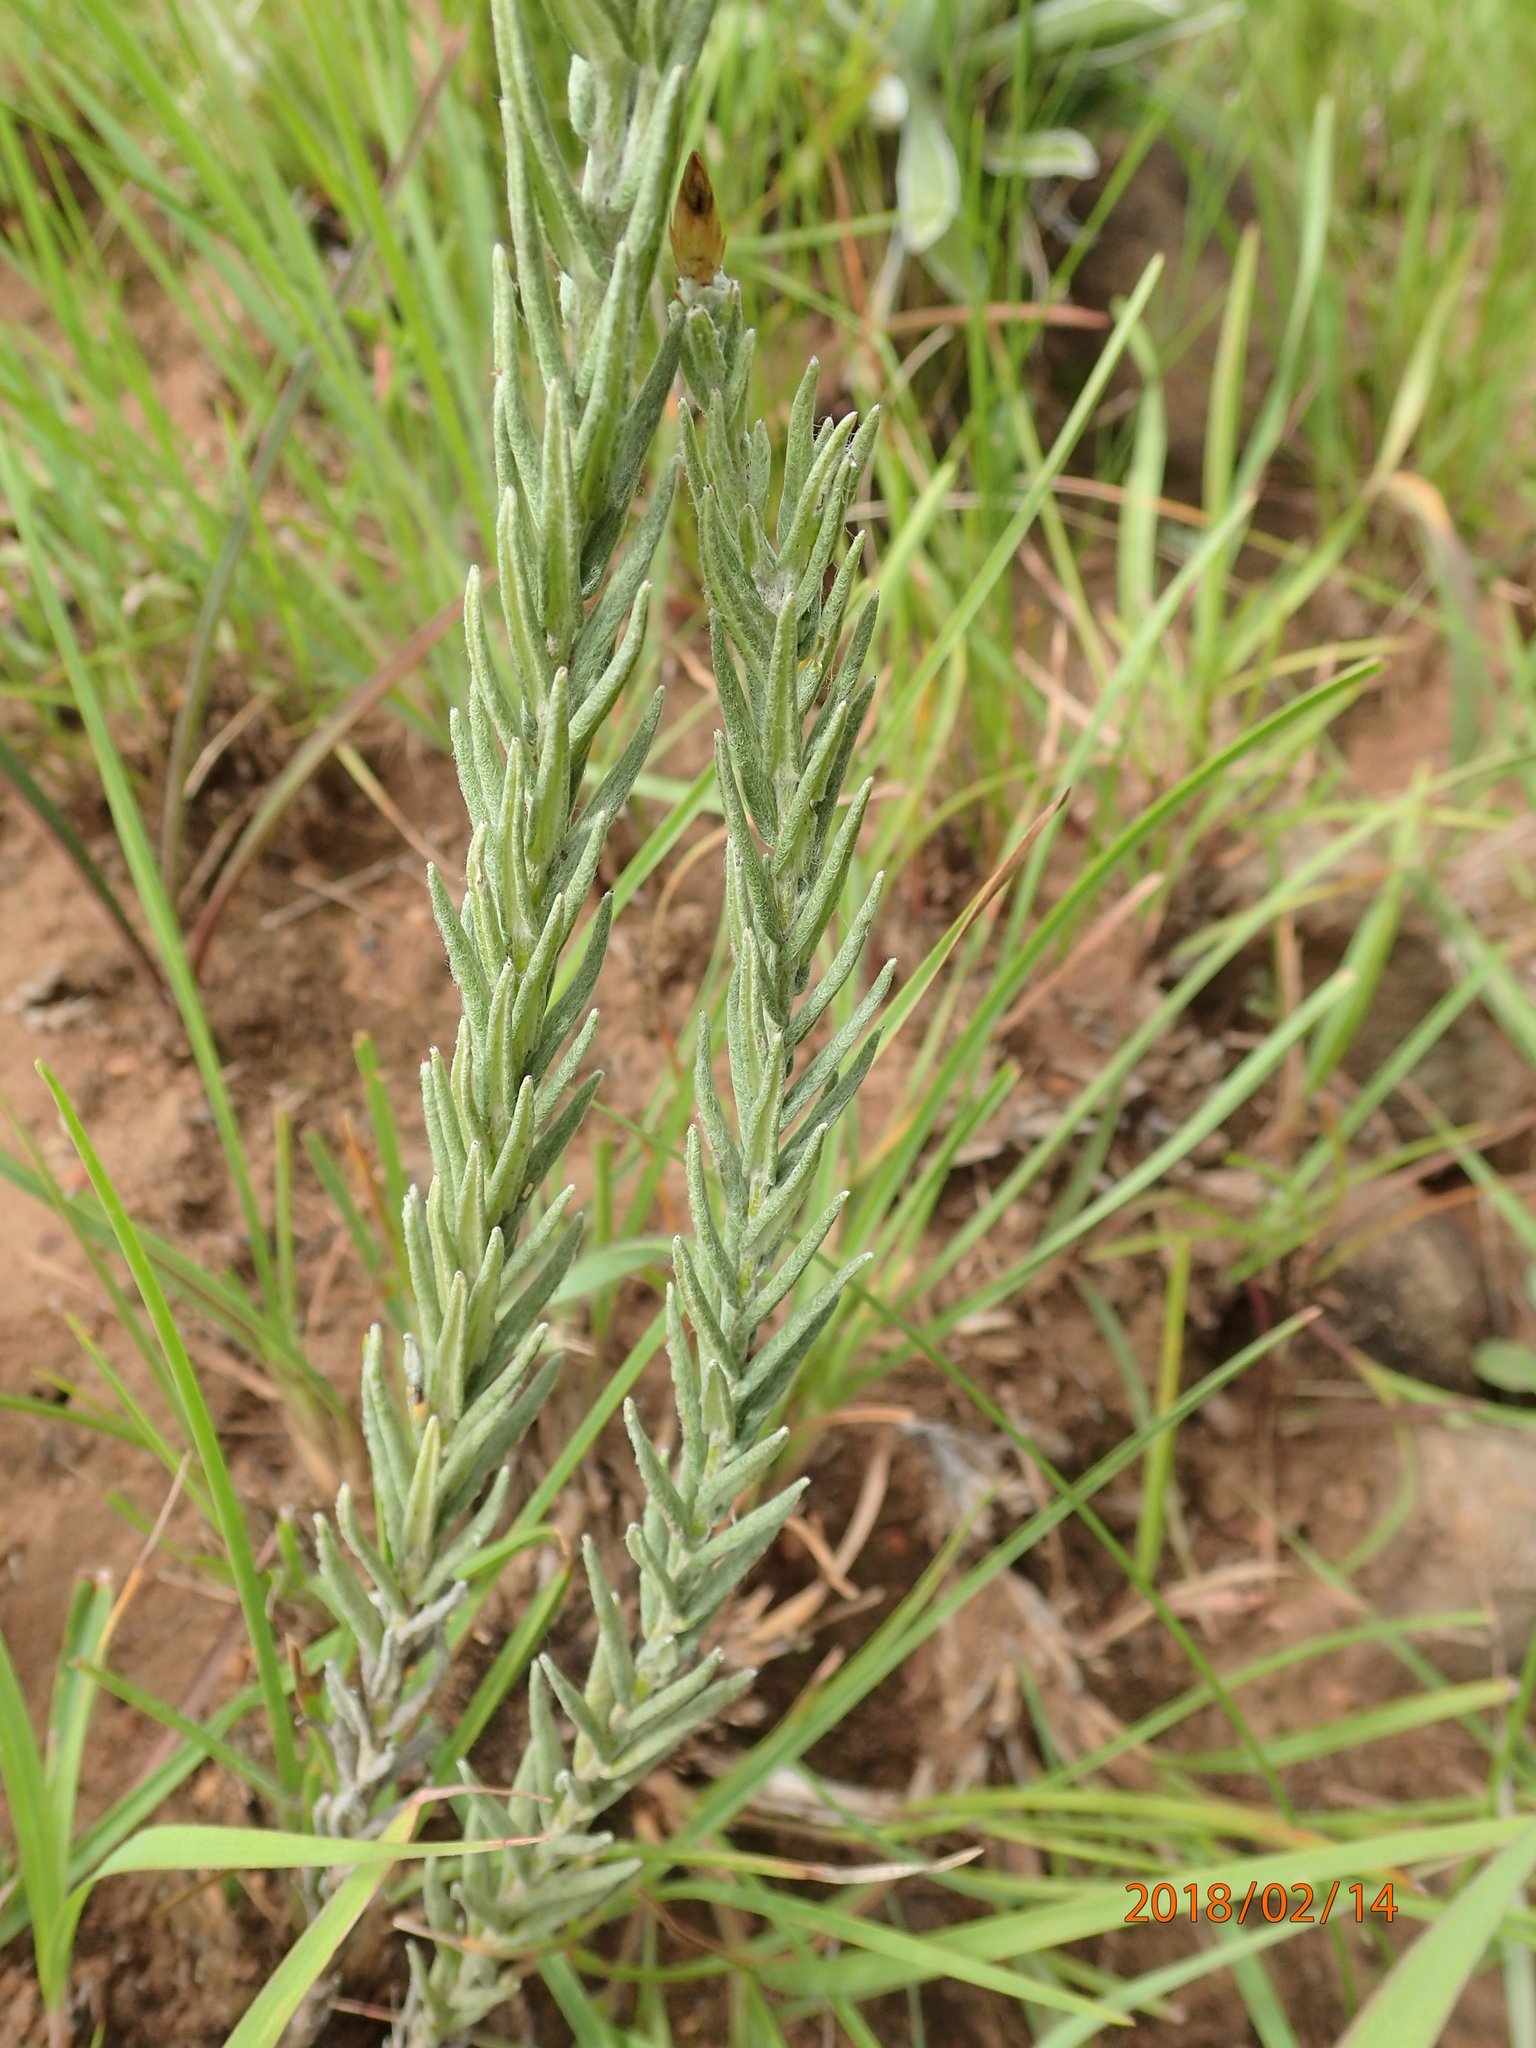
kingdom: Plantae
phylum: Tracheophyta
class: Magnoliopsida
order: Asterales
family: Asteraceae
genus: Helichrysum
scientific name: Helichrysum herbaceum
